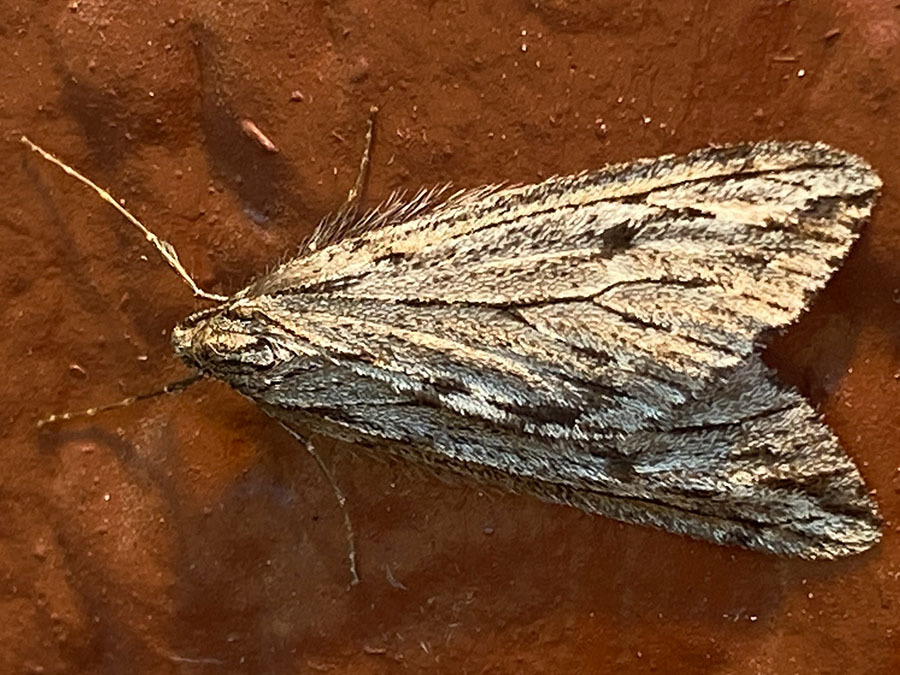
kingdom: Animalia
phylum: Arthropoda
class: Insecta
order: Lepidoptera
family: Geometridae
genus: Paleacrita
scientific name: Paleacrita longiciliata
